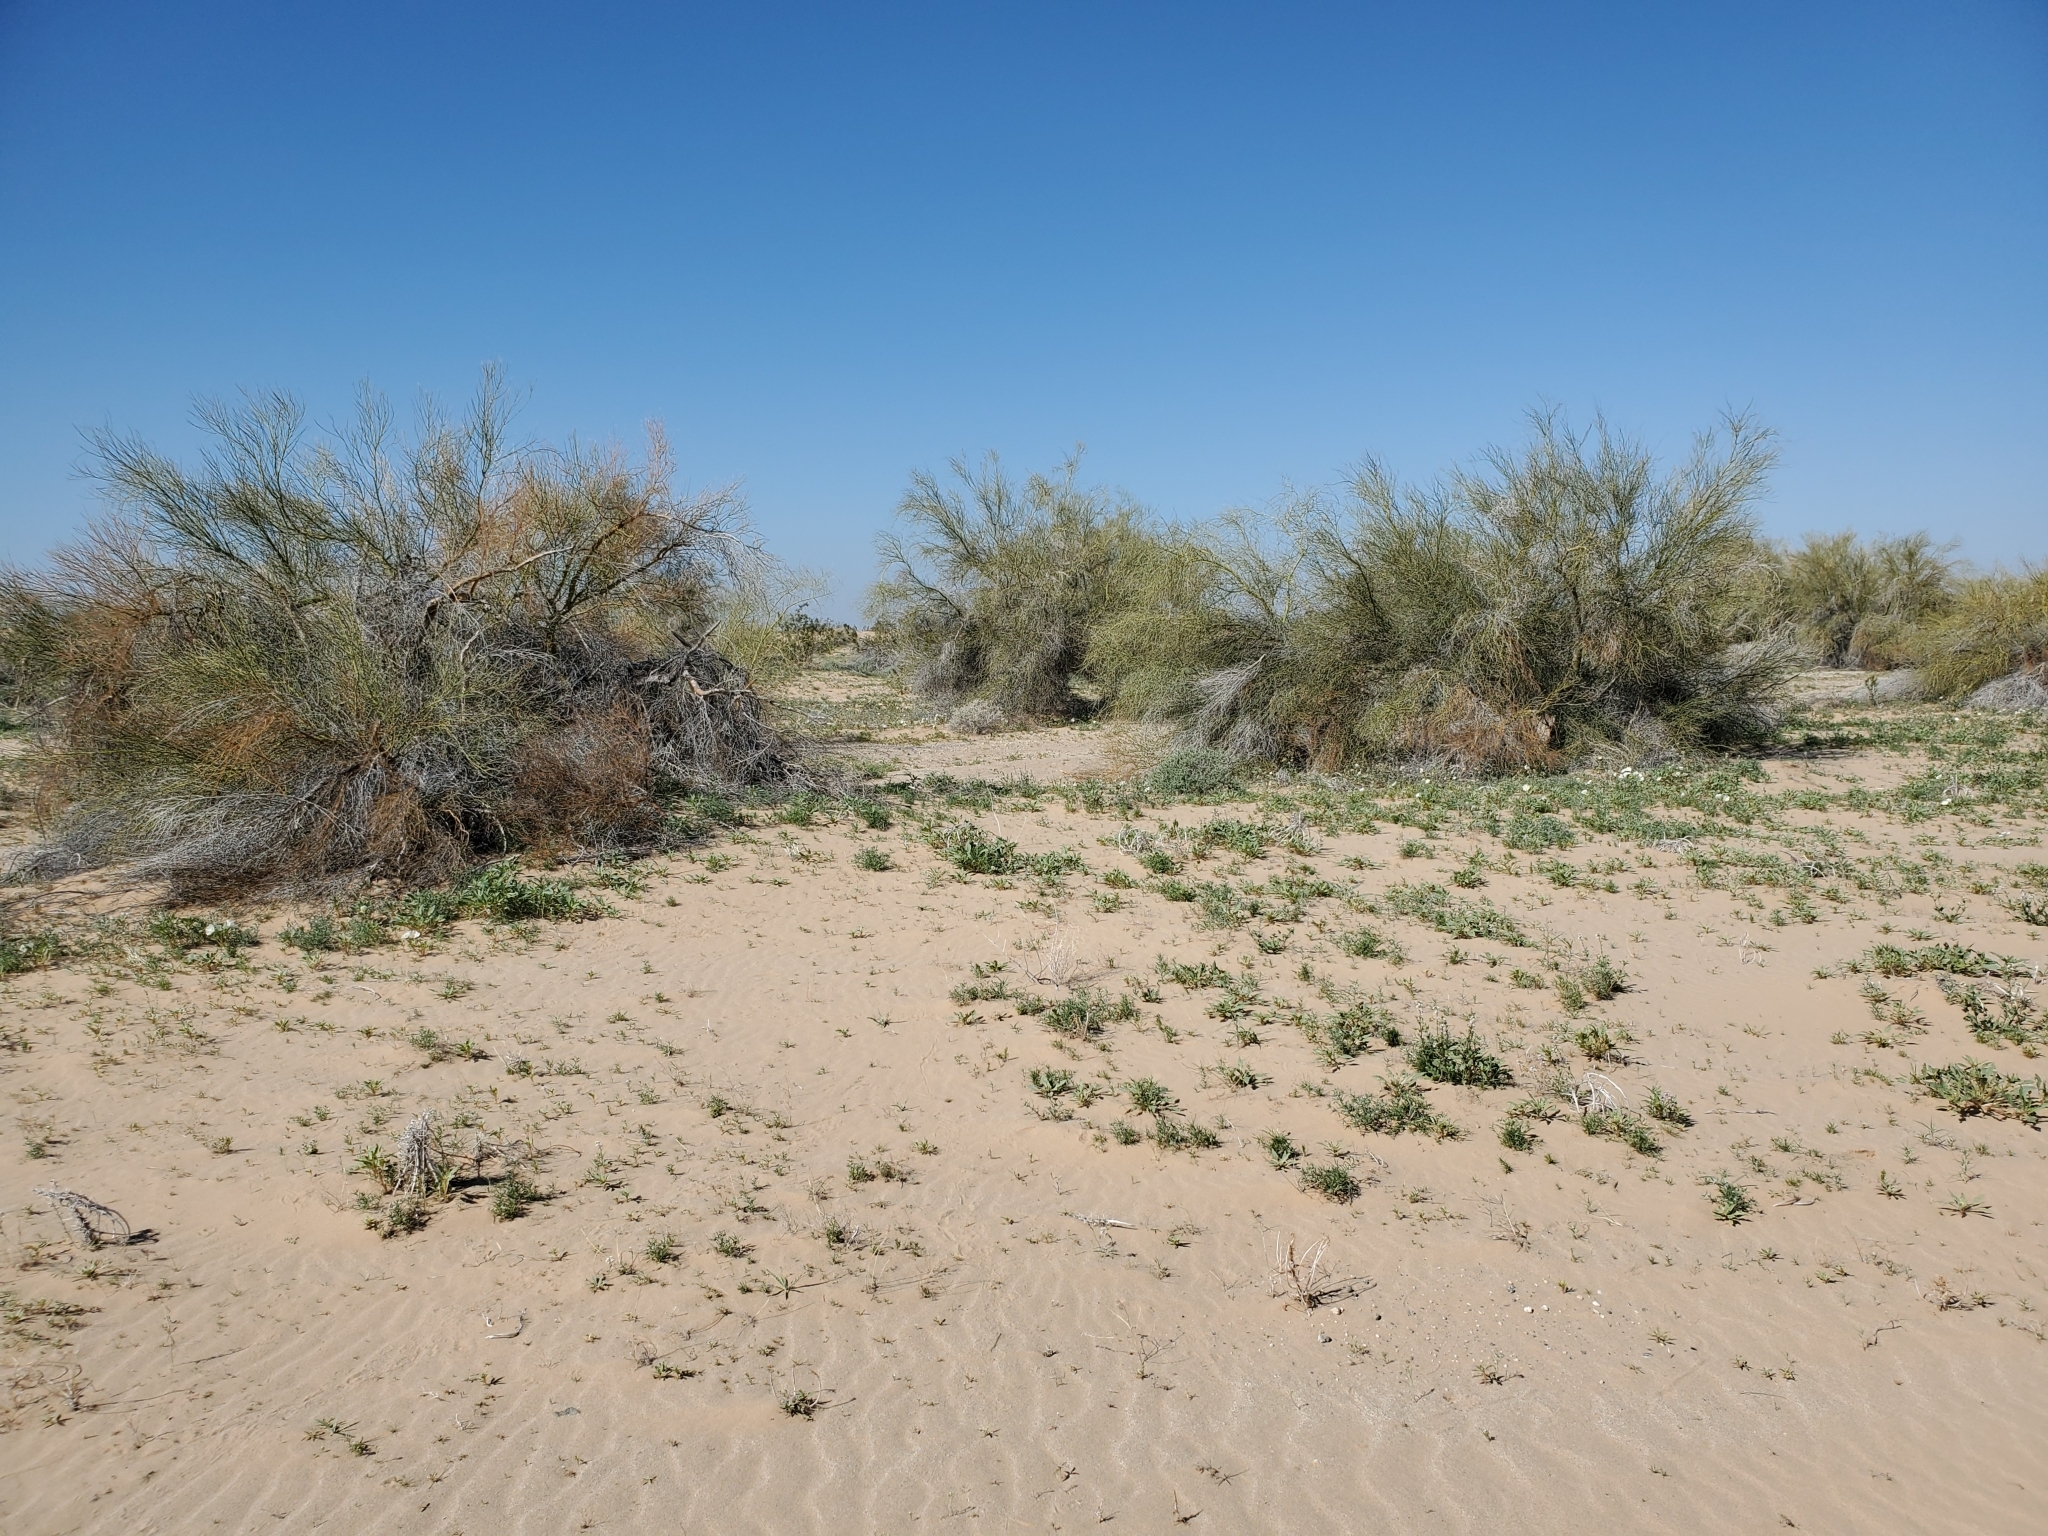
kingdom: Plantae
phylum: Tracheophyta
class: Magnoliopsida
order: Fabales
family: Fabaceae
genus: Parkinsonia
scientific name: Parkinsonia florida
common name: Blue paloverde
